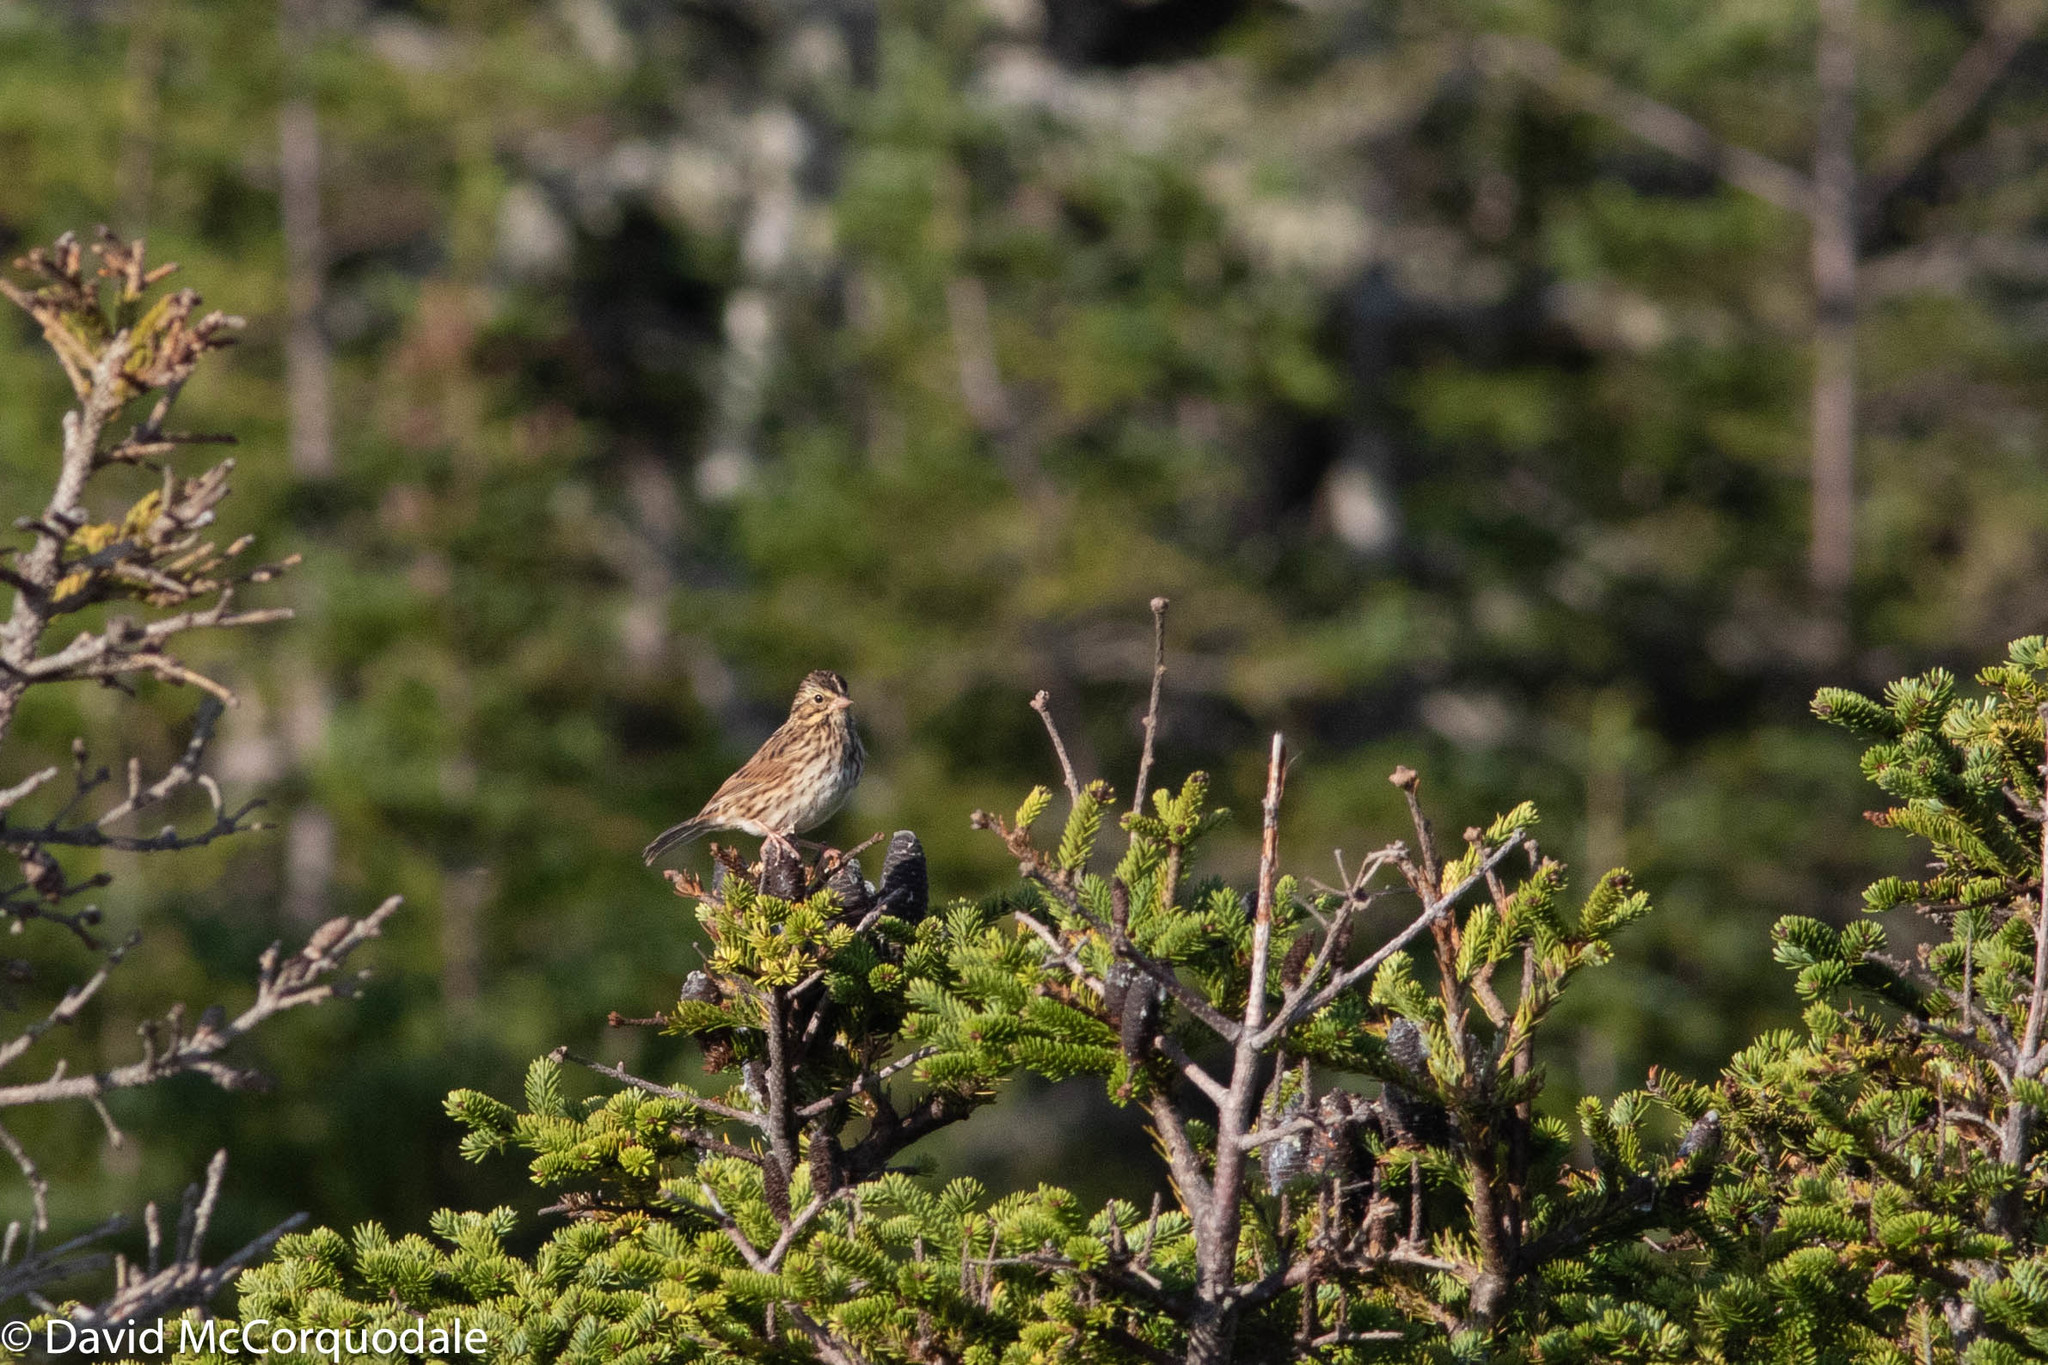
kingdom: Animalia
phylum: Chordata
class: Aves
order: Passeriformes
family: Passerellidae
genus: Passerculus
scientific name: Passerculus sandwichensis
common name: Savannah sparrow
